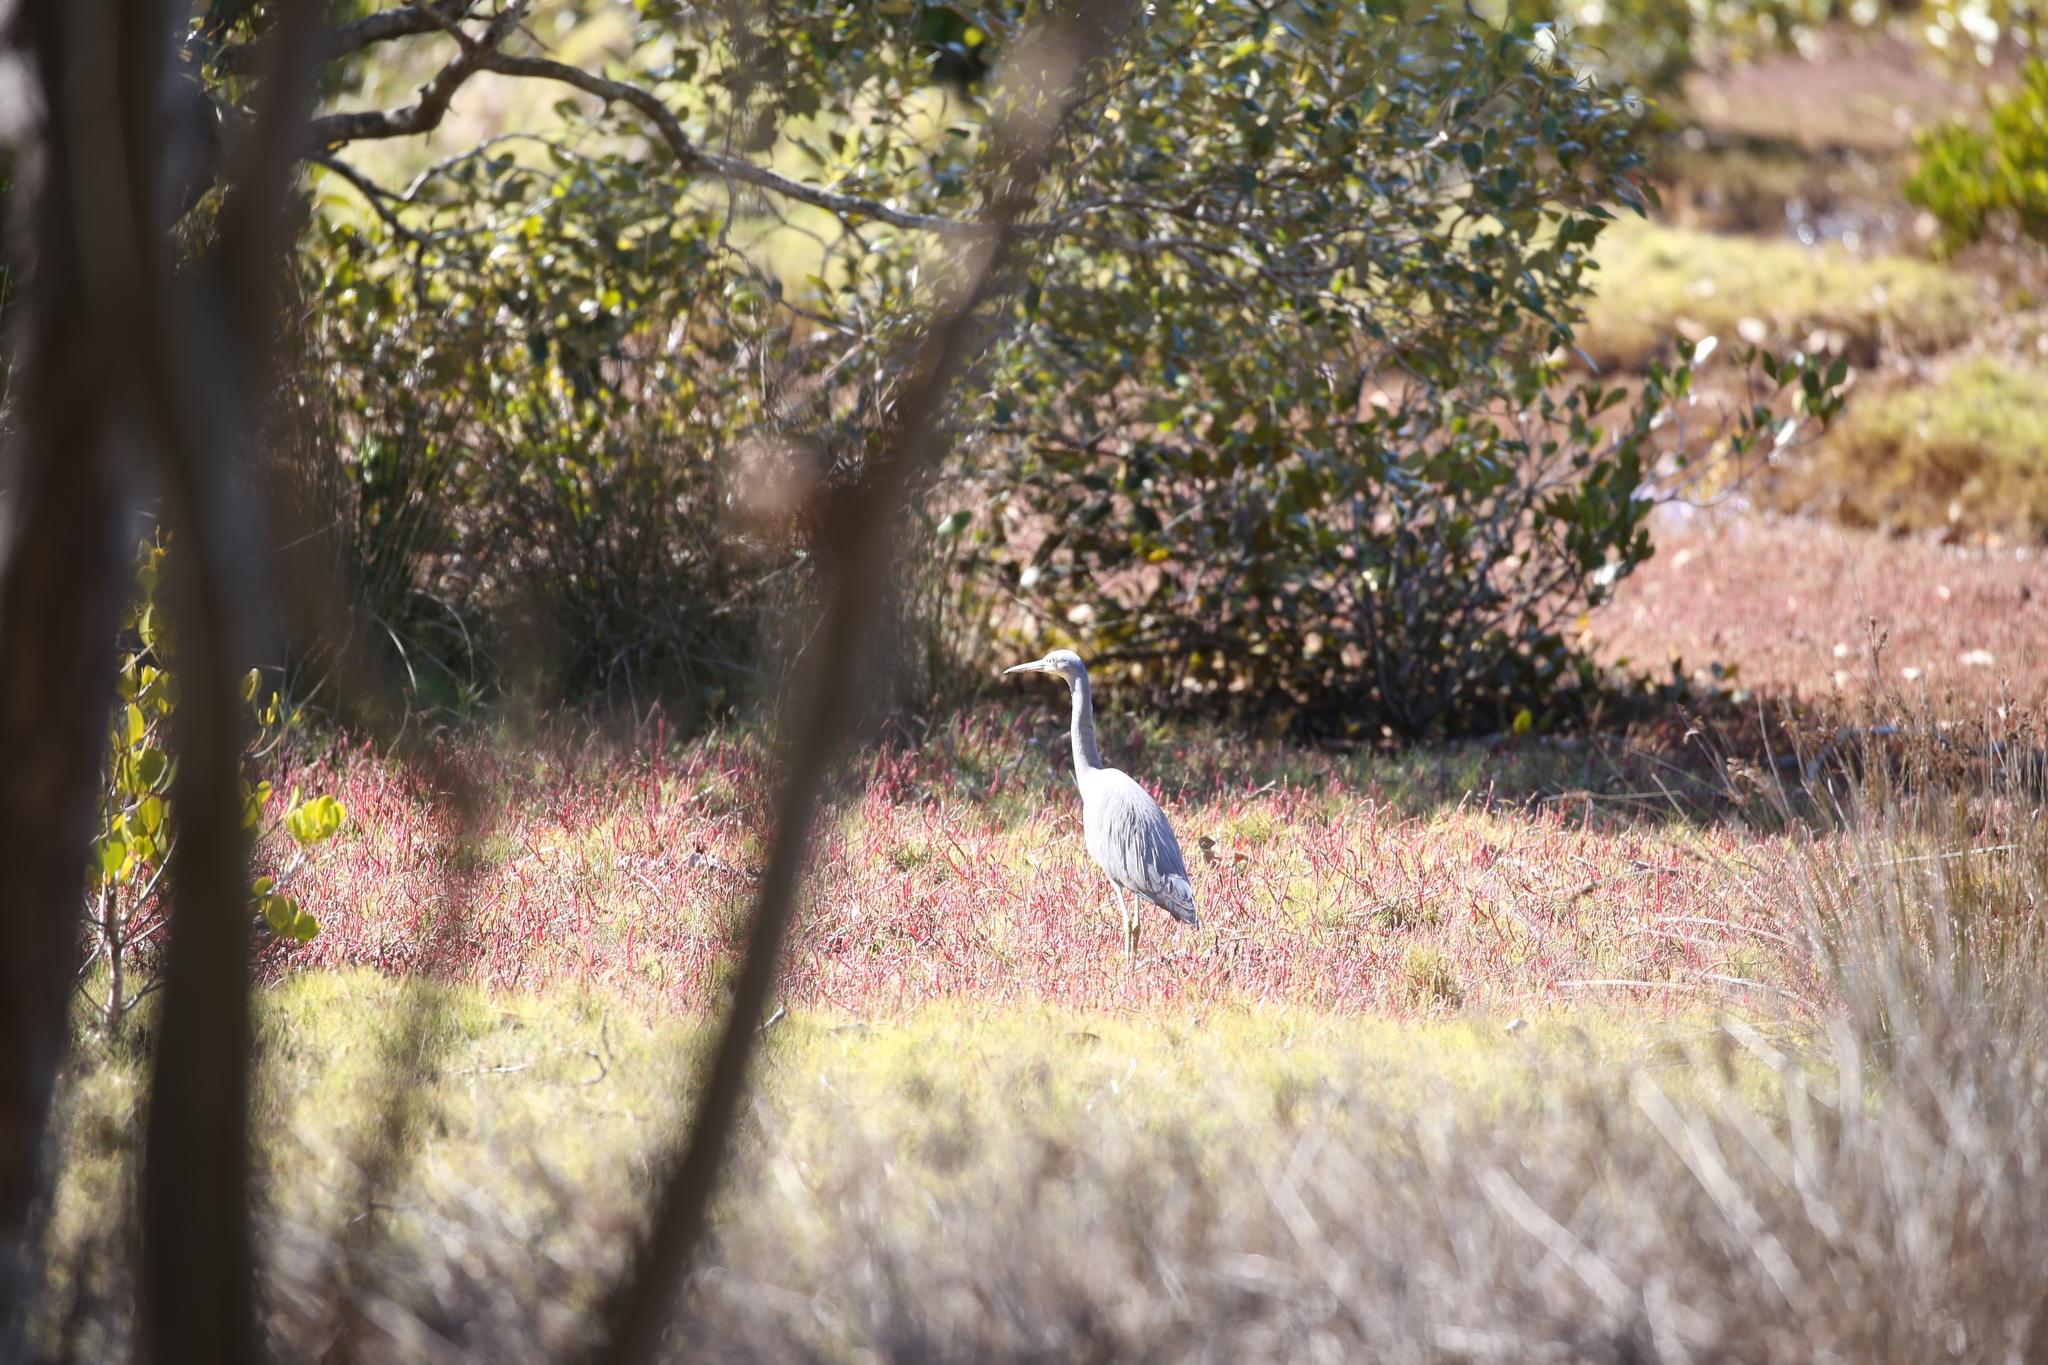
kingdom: Animalia
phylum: Chordata
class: Aves
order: Pelecaniformes
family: Ardeidae
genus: Egretta
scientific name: Egretta novaehollandiae
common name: White-faced heron
